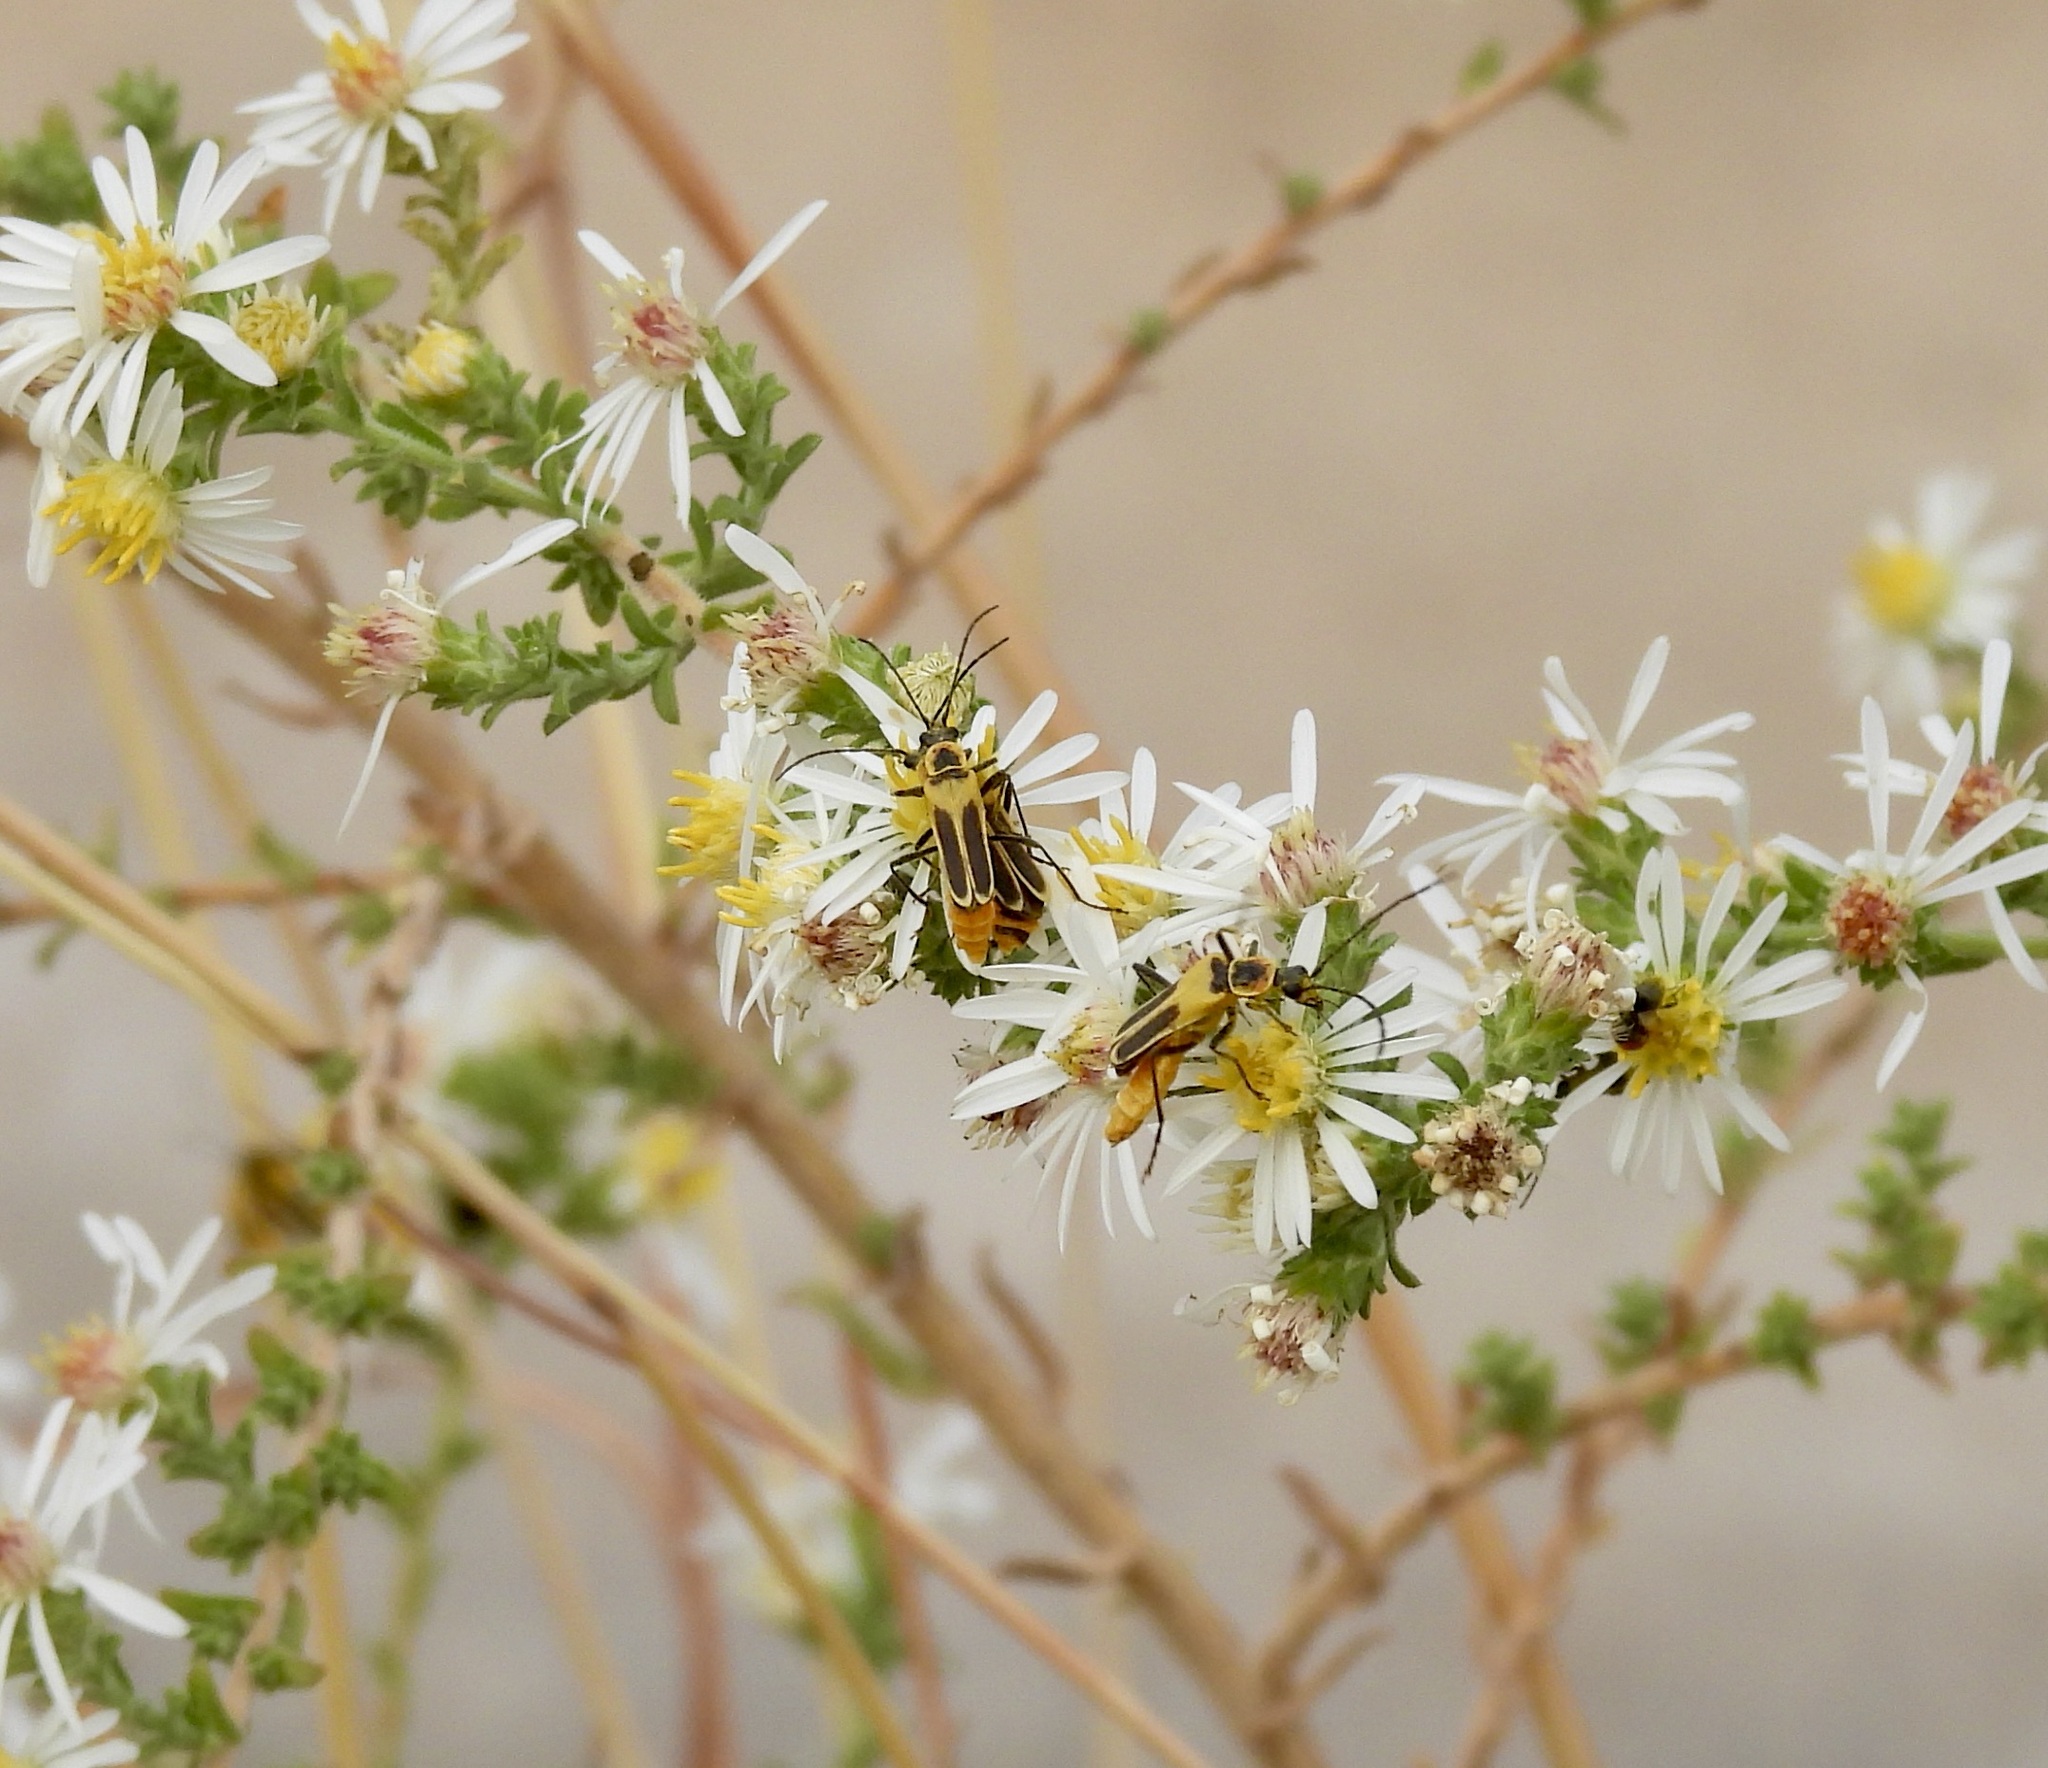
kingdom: Animalia
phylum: Arthropoda
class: Insecta
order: Coleoptera
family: Cantharidae
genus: Chauliognathus
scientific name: Chauliognathus lewisi
